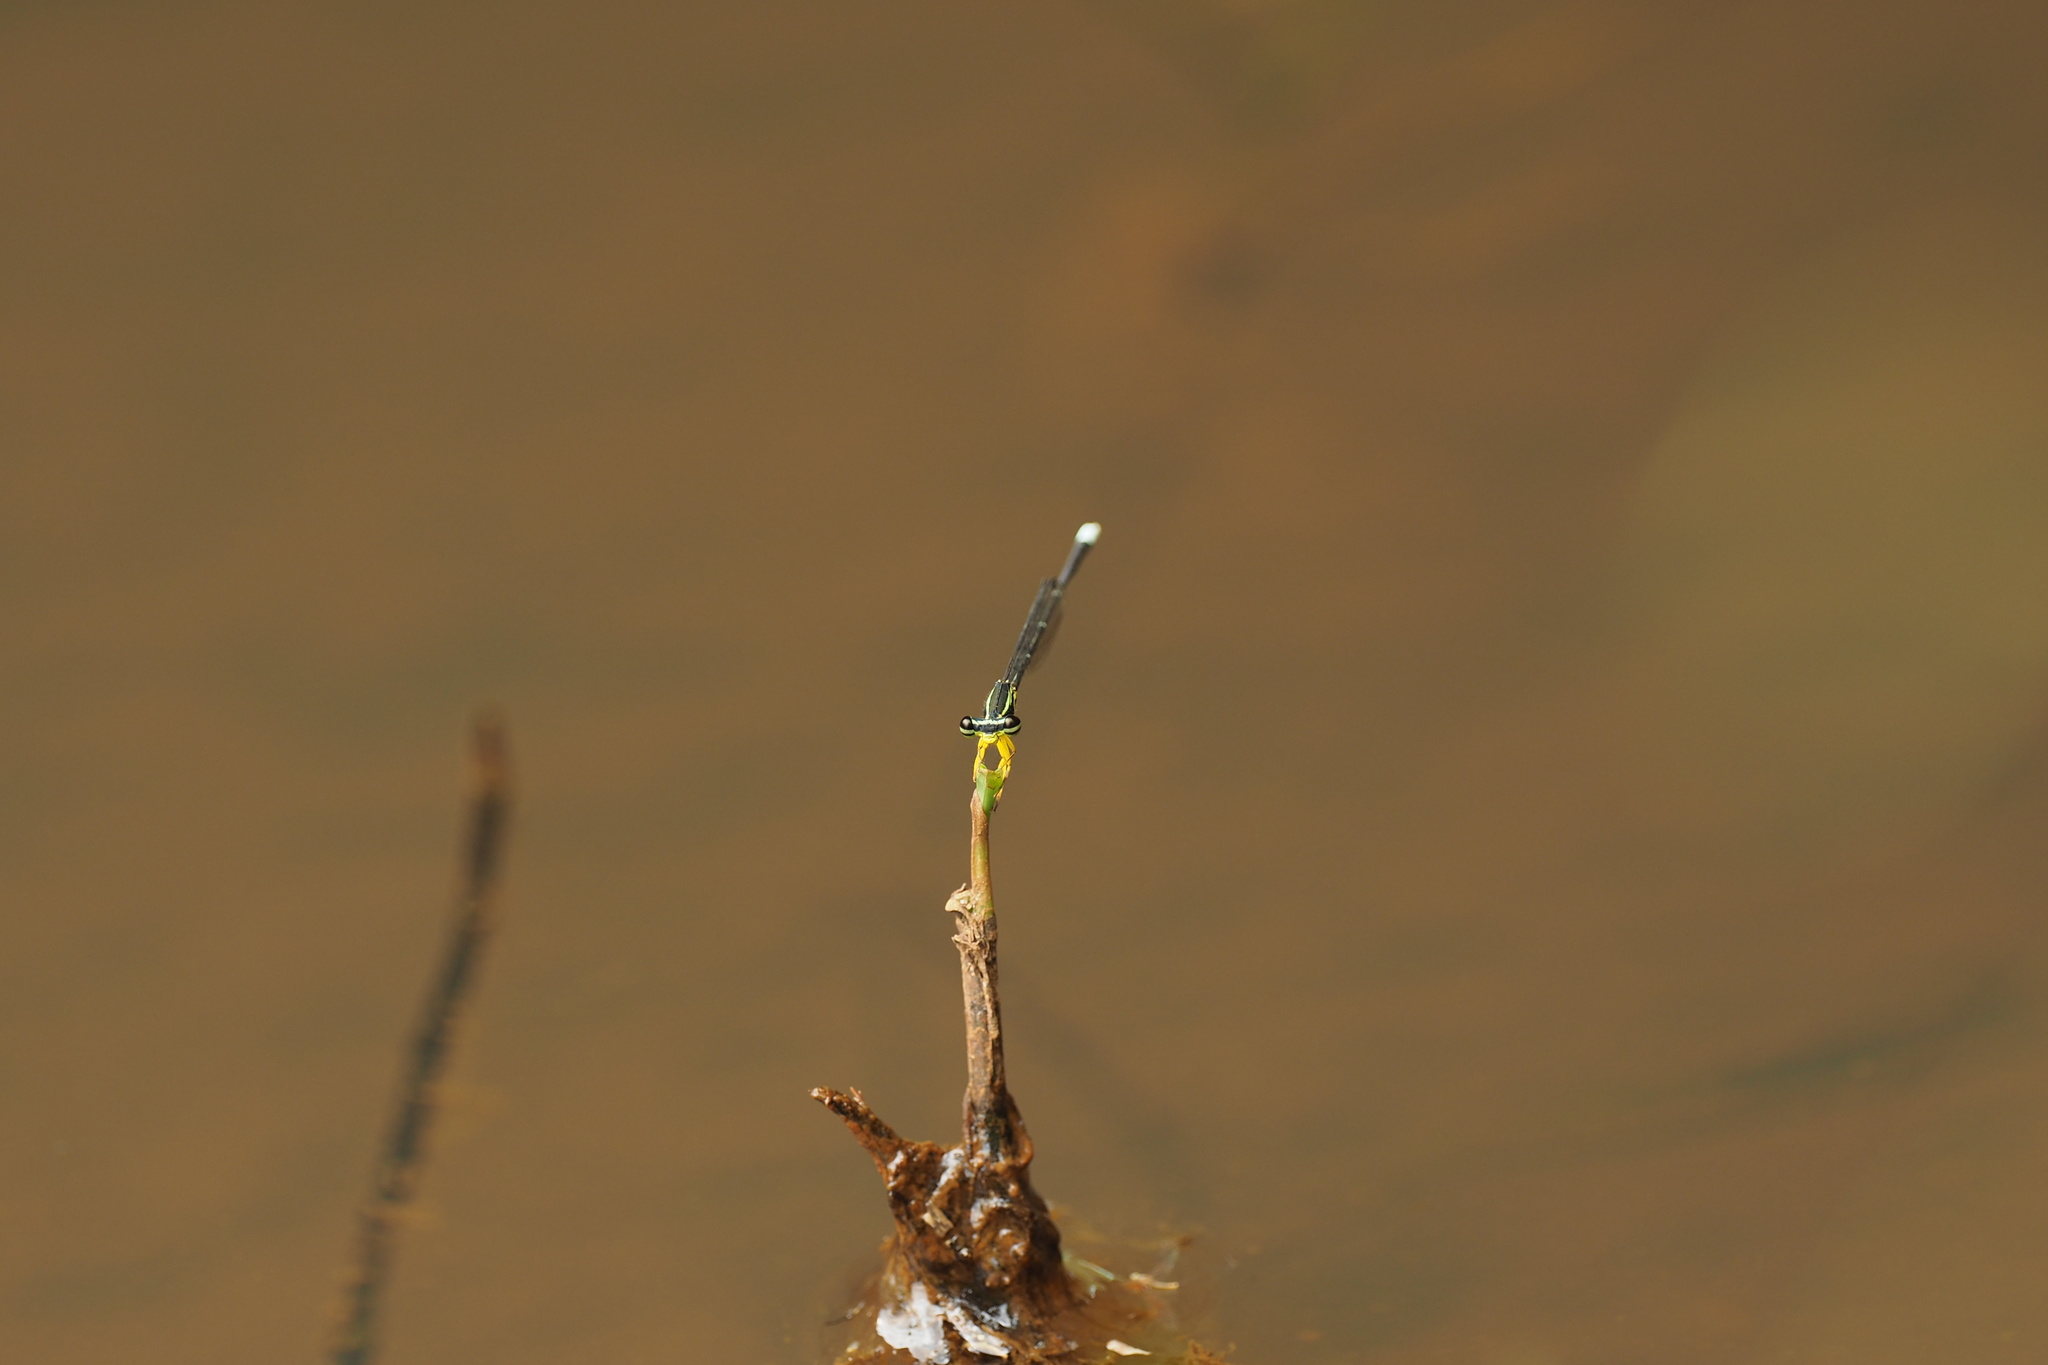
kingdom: Animalia
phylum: Arthropoda
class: Insecta
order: Odonata
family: Platycnemididae
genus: Copera
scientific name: Copera marginipes
